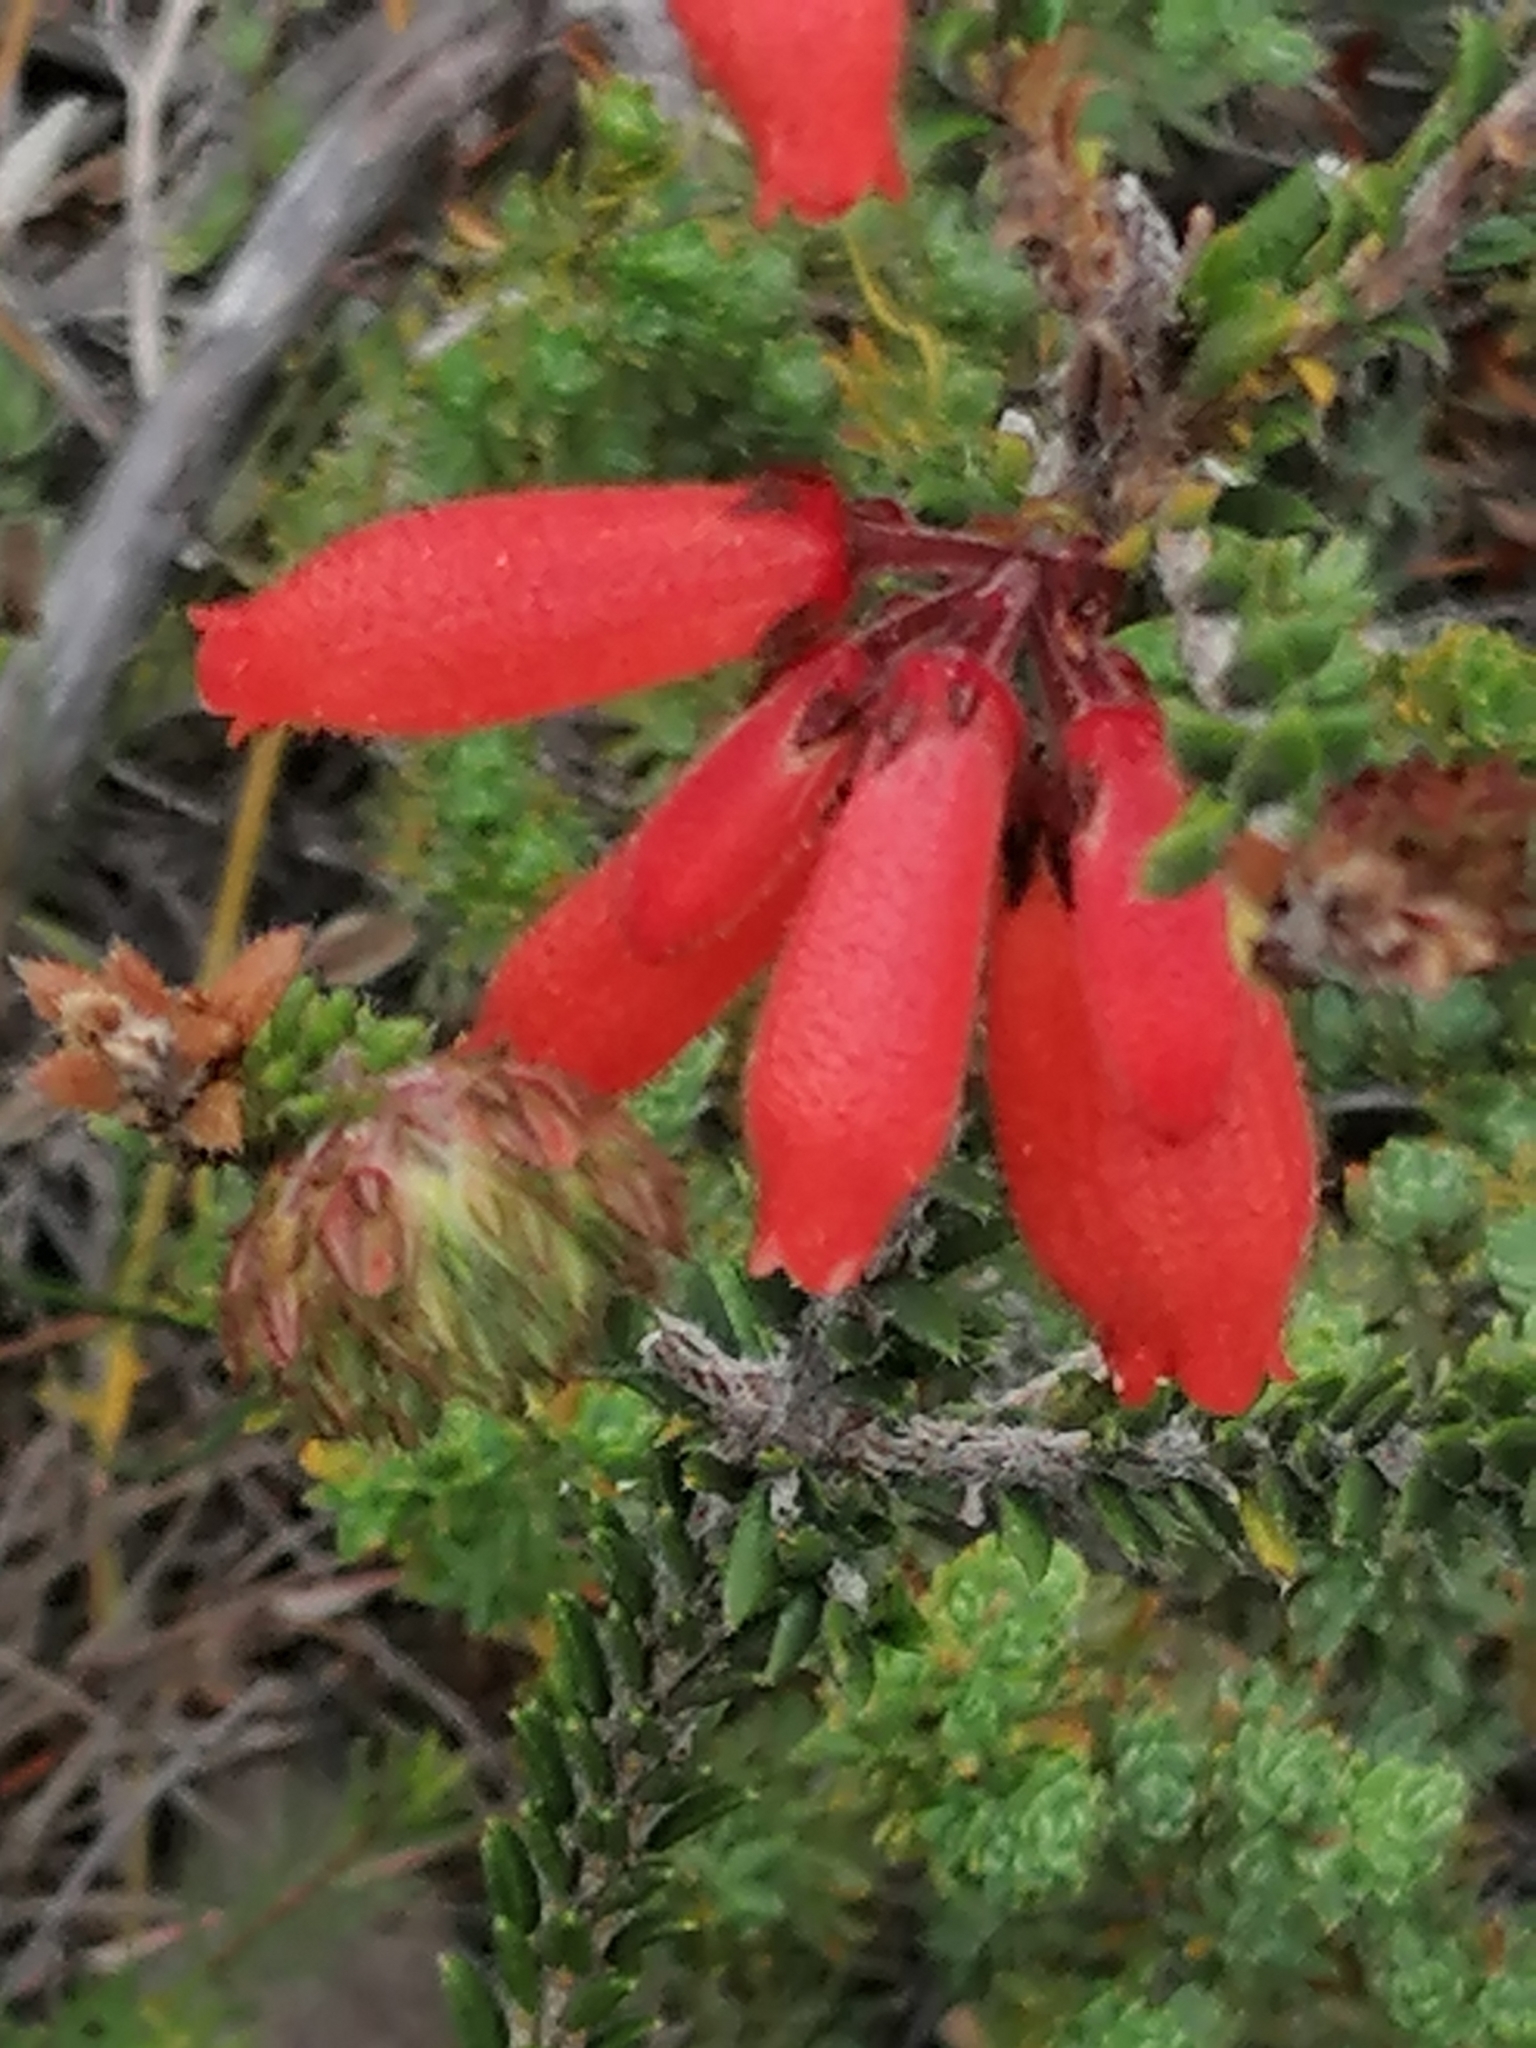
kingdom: Plantae
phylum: Tracheophyta
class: Magnoliopsida
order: Ericales
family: Ericaceae
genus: Erica
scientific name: Erica cerinthoides
